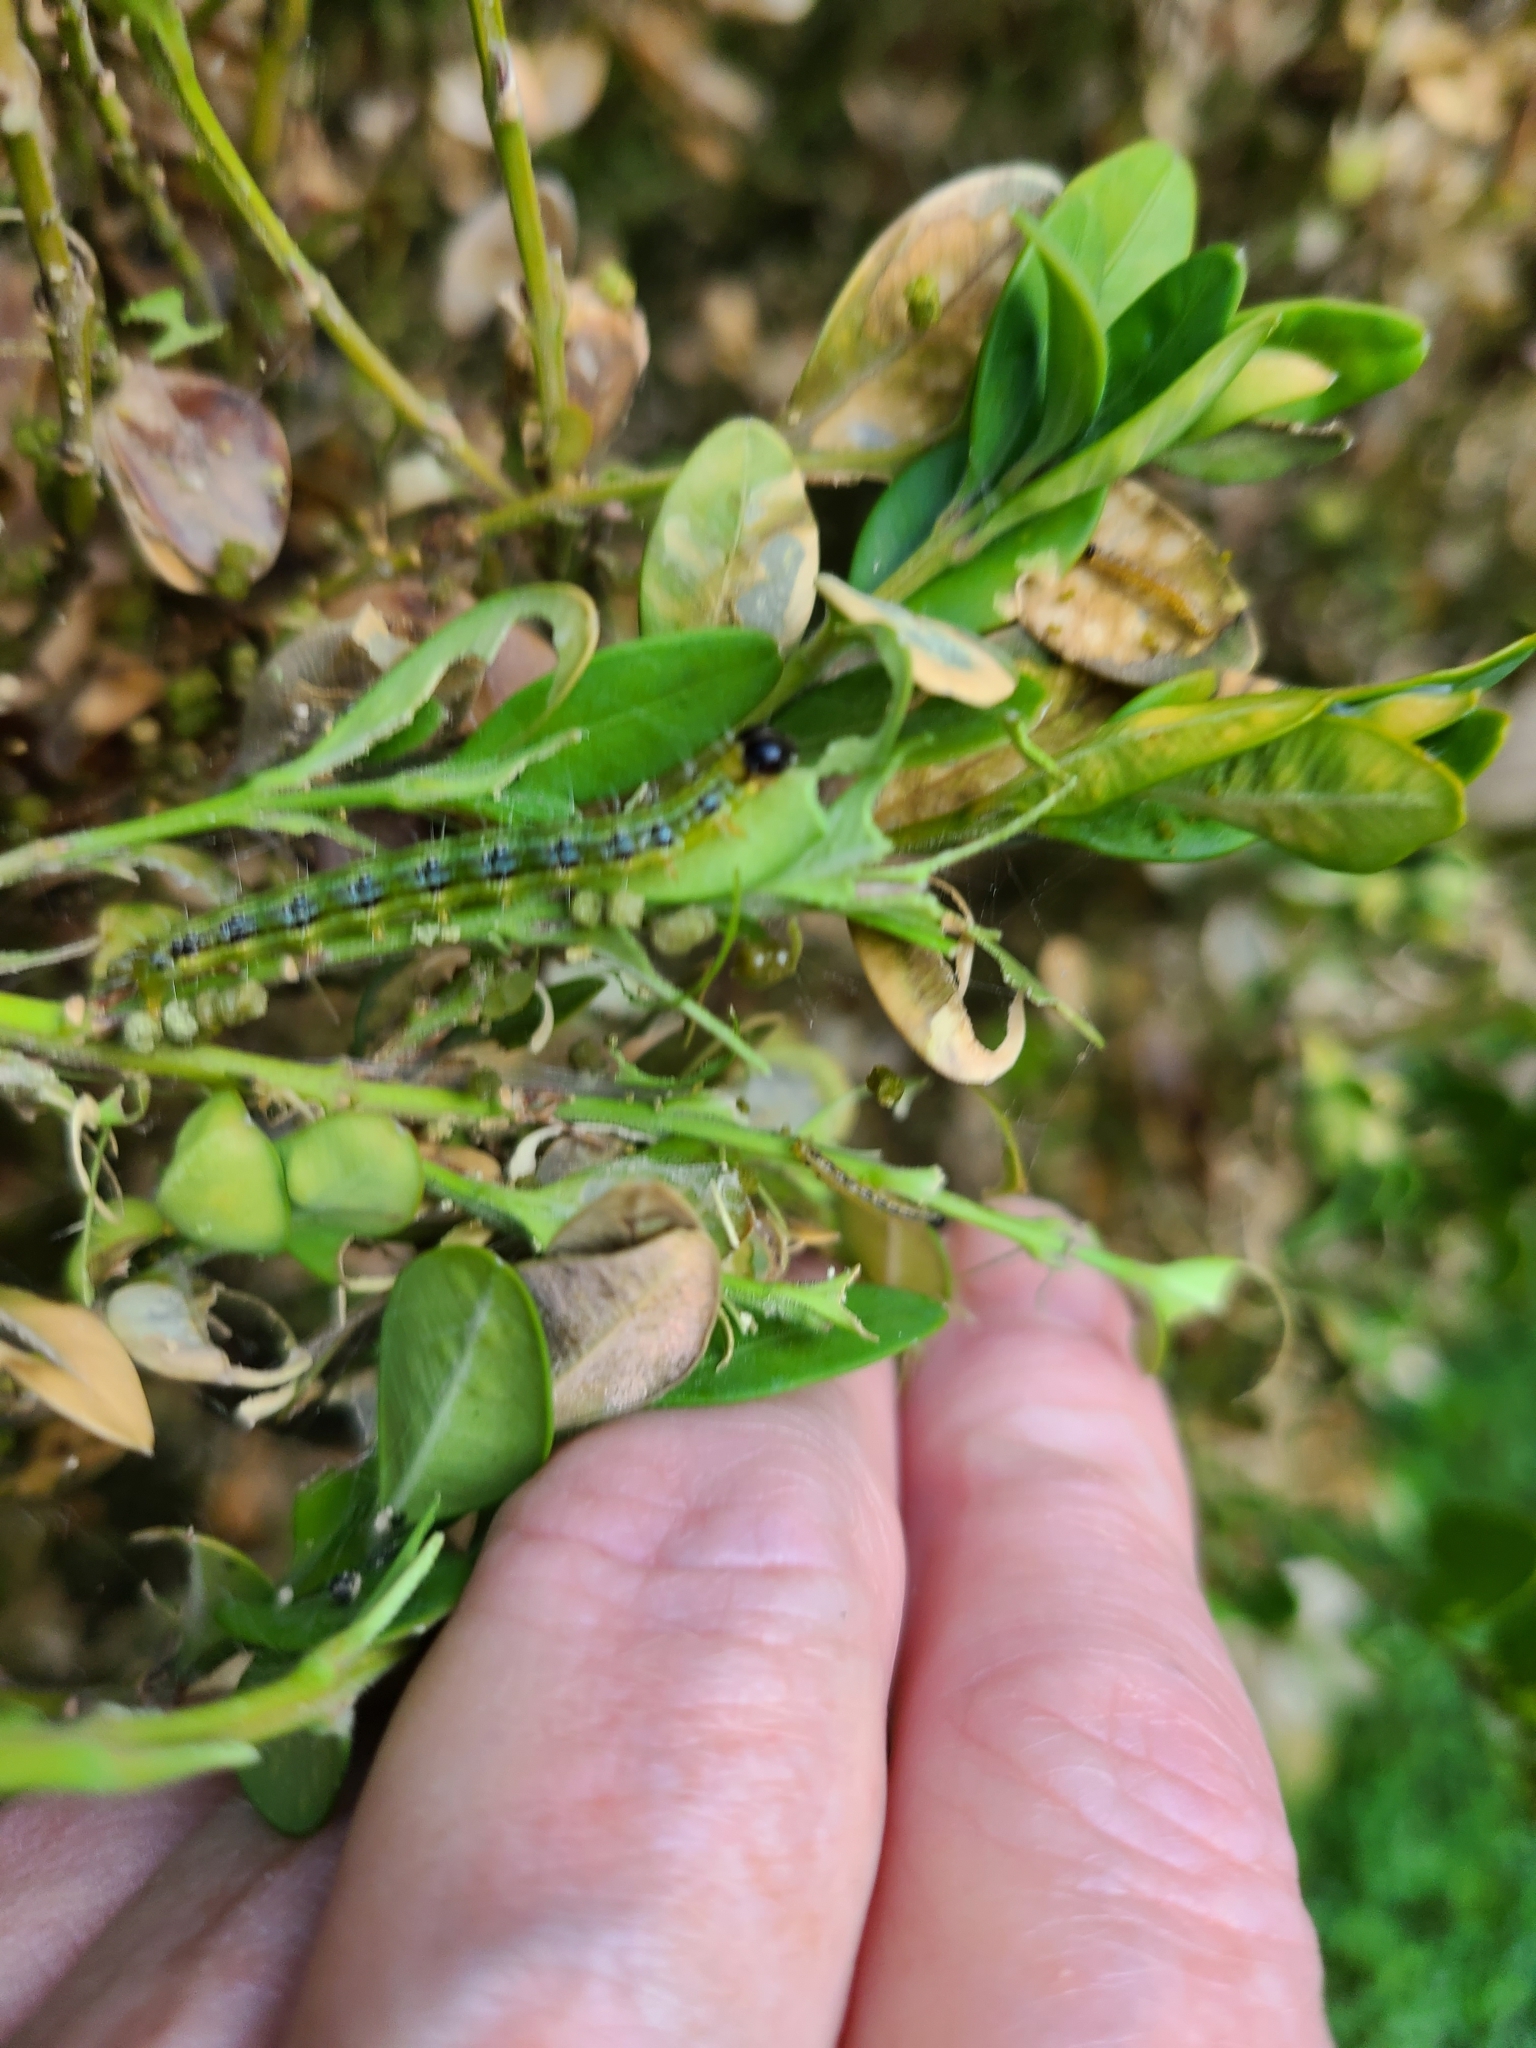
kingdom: Animalia
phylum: Arthropoda
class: Insecta
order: Lepidoptera
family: Crambidae
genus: Cydalima
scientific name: Cydalima perspectalis
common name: Box tree moth
